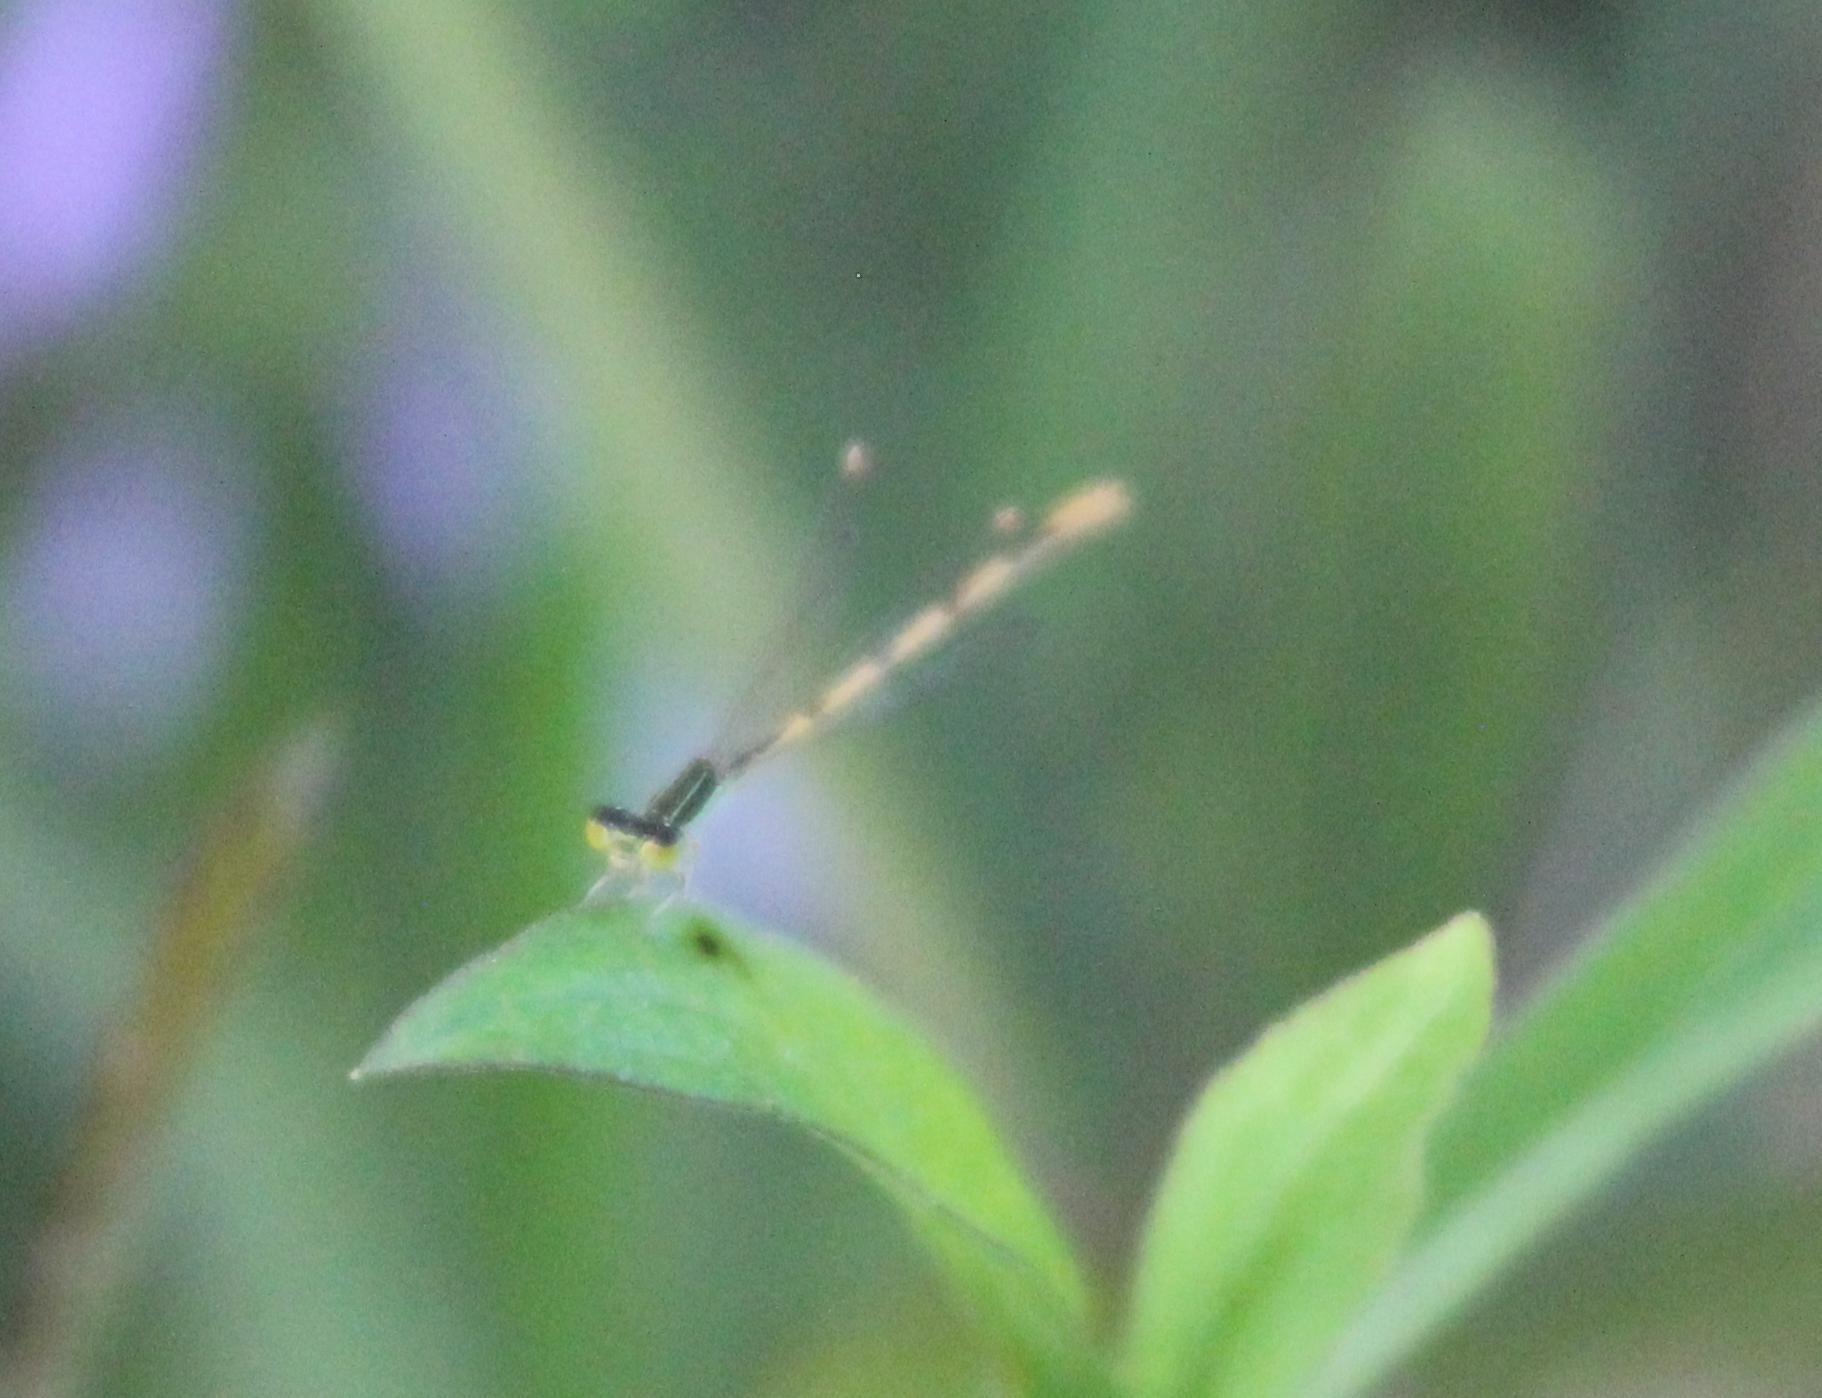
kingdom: Animalia
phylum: Arthropoda
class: Insecta
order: Odonata
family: Coenagrionidae
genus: Ischnura
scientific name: Ischnura hastata
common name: Citrine forktail
